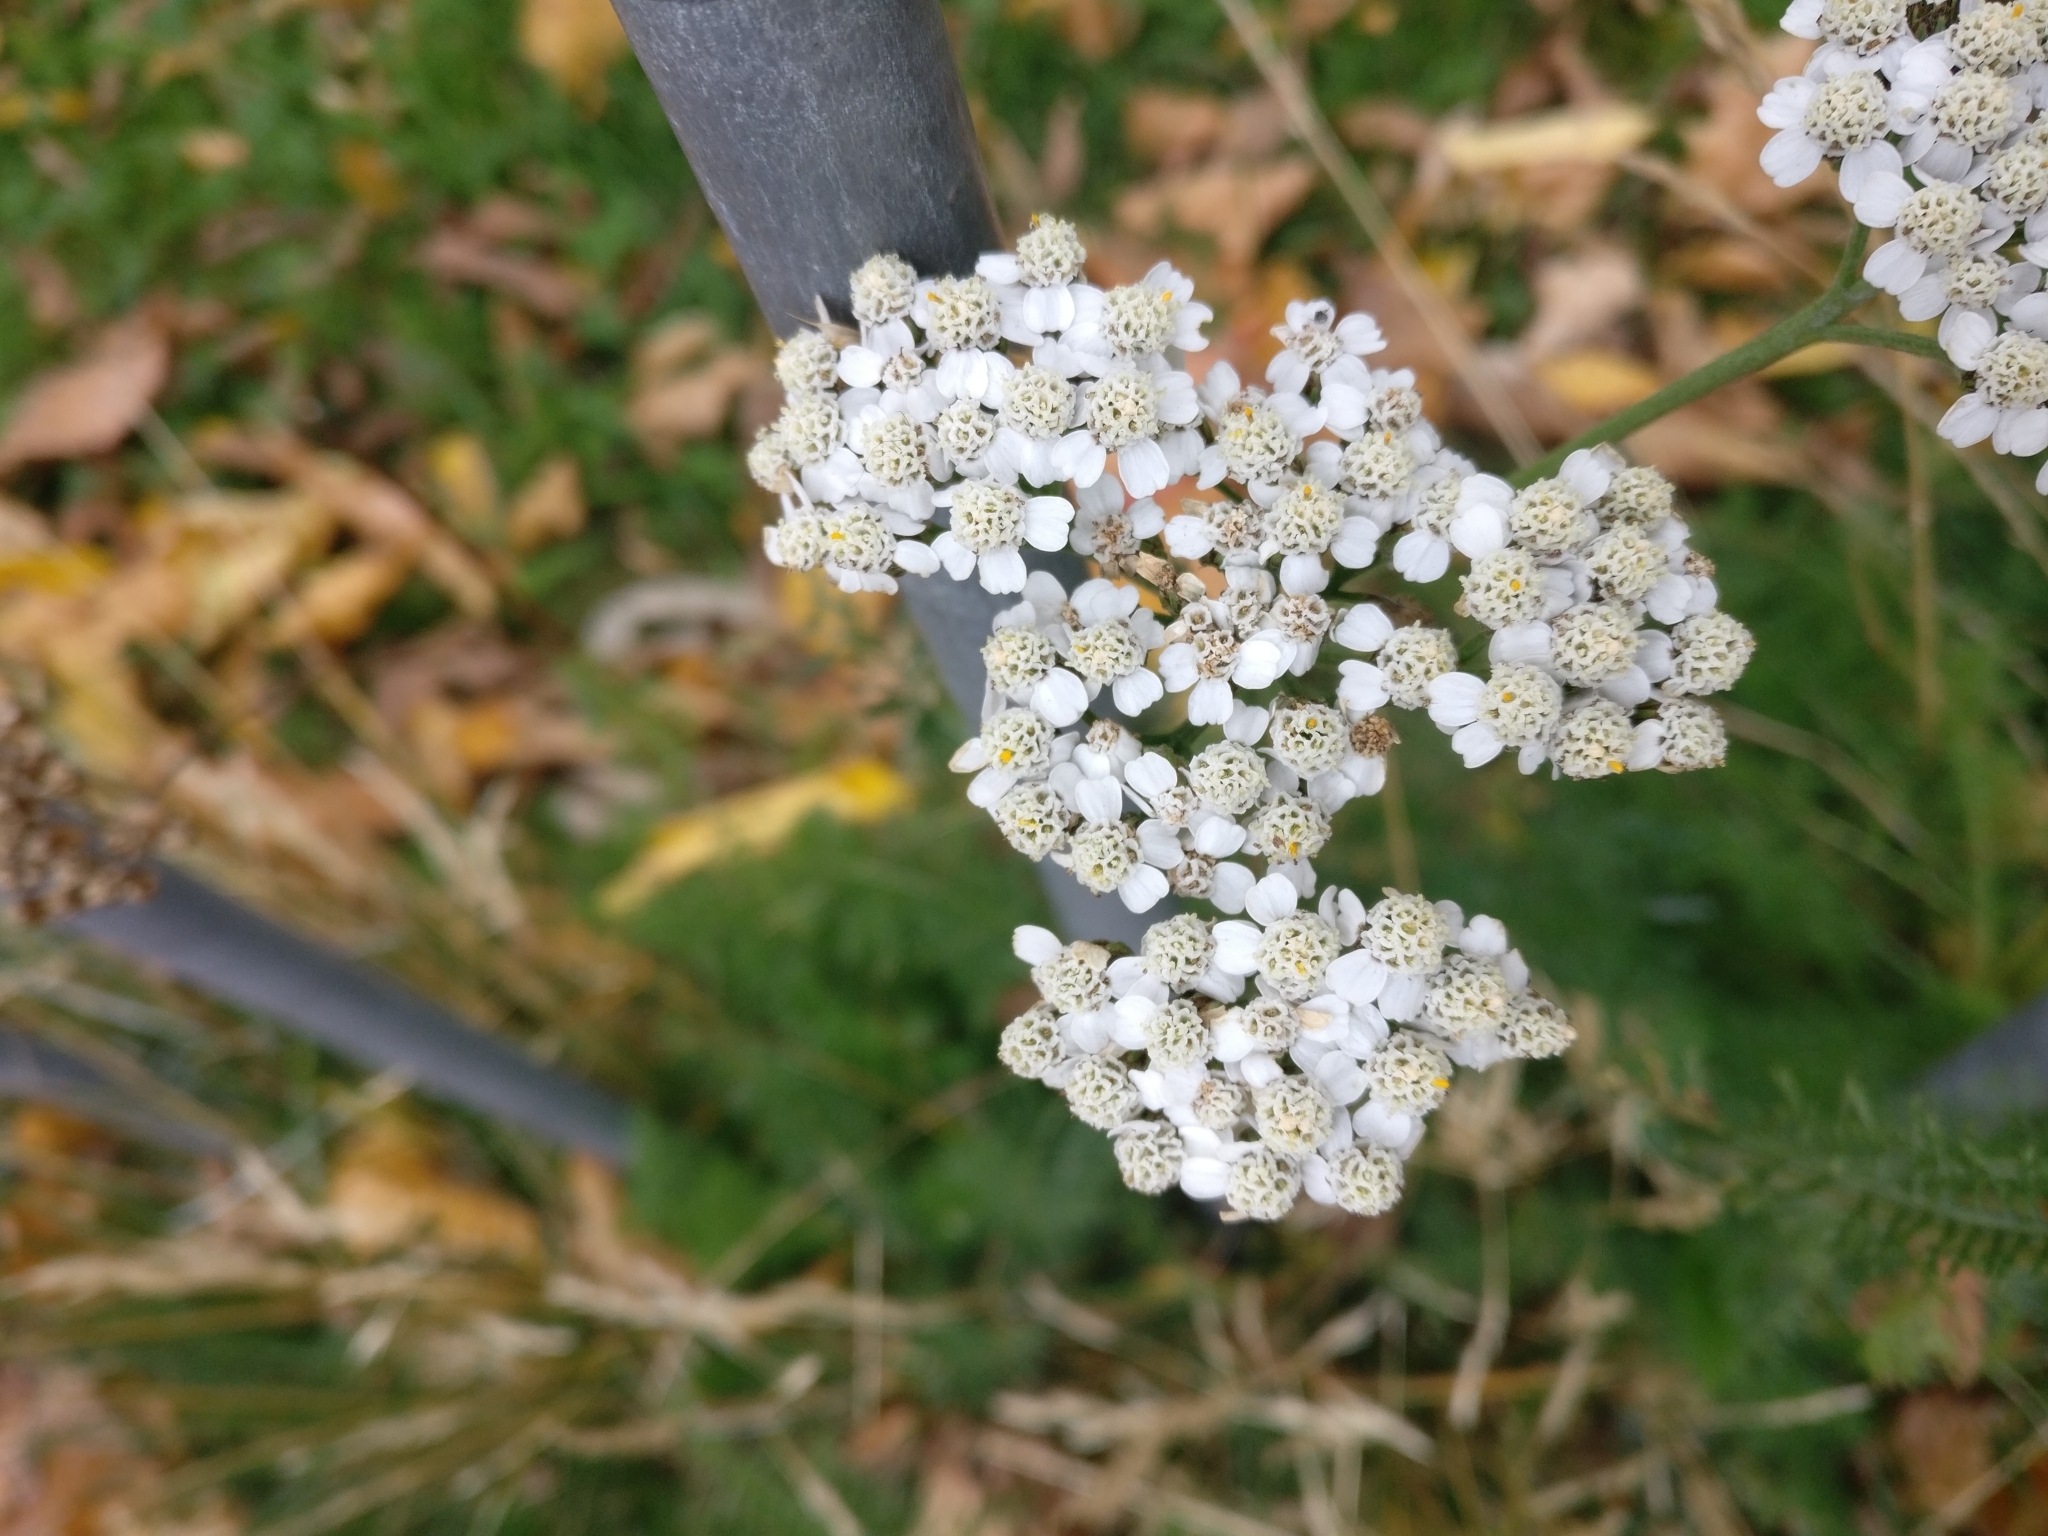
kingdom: Plantae
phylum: Tracheophyta
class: Magnoliopsida
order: Asterales
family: Asteraceae
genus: Achillea
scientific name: Achillea millefolium
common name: Yarrow
